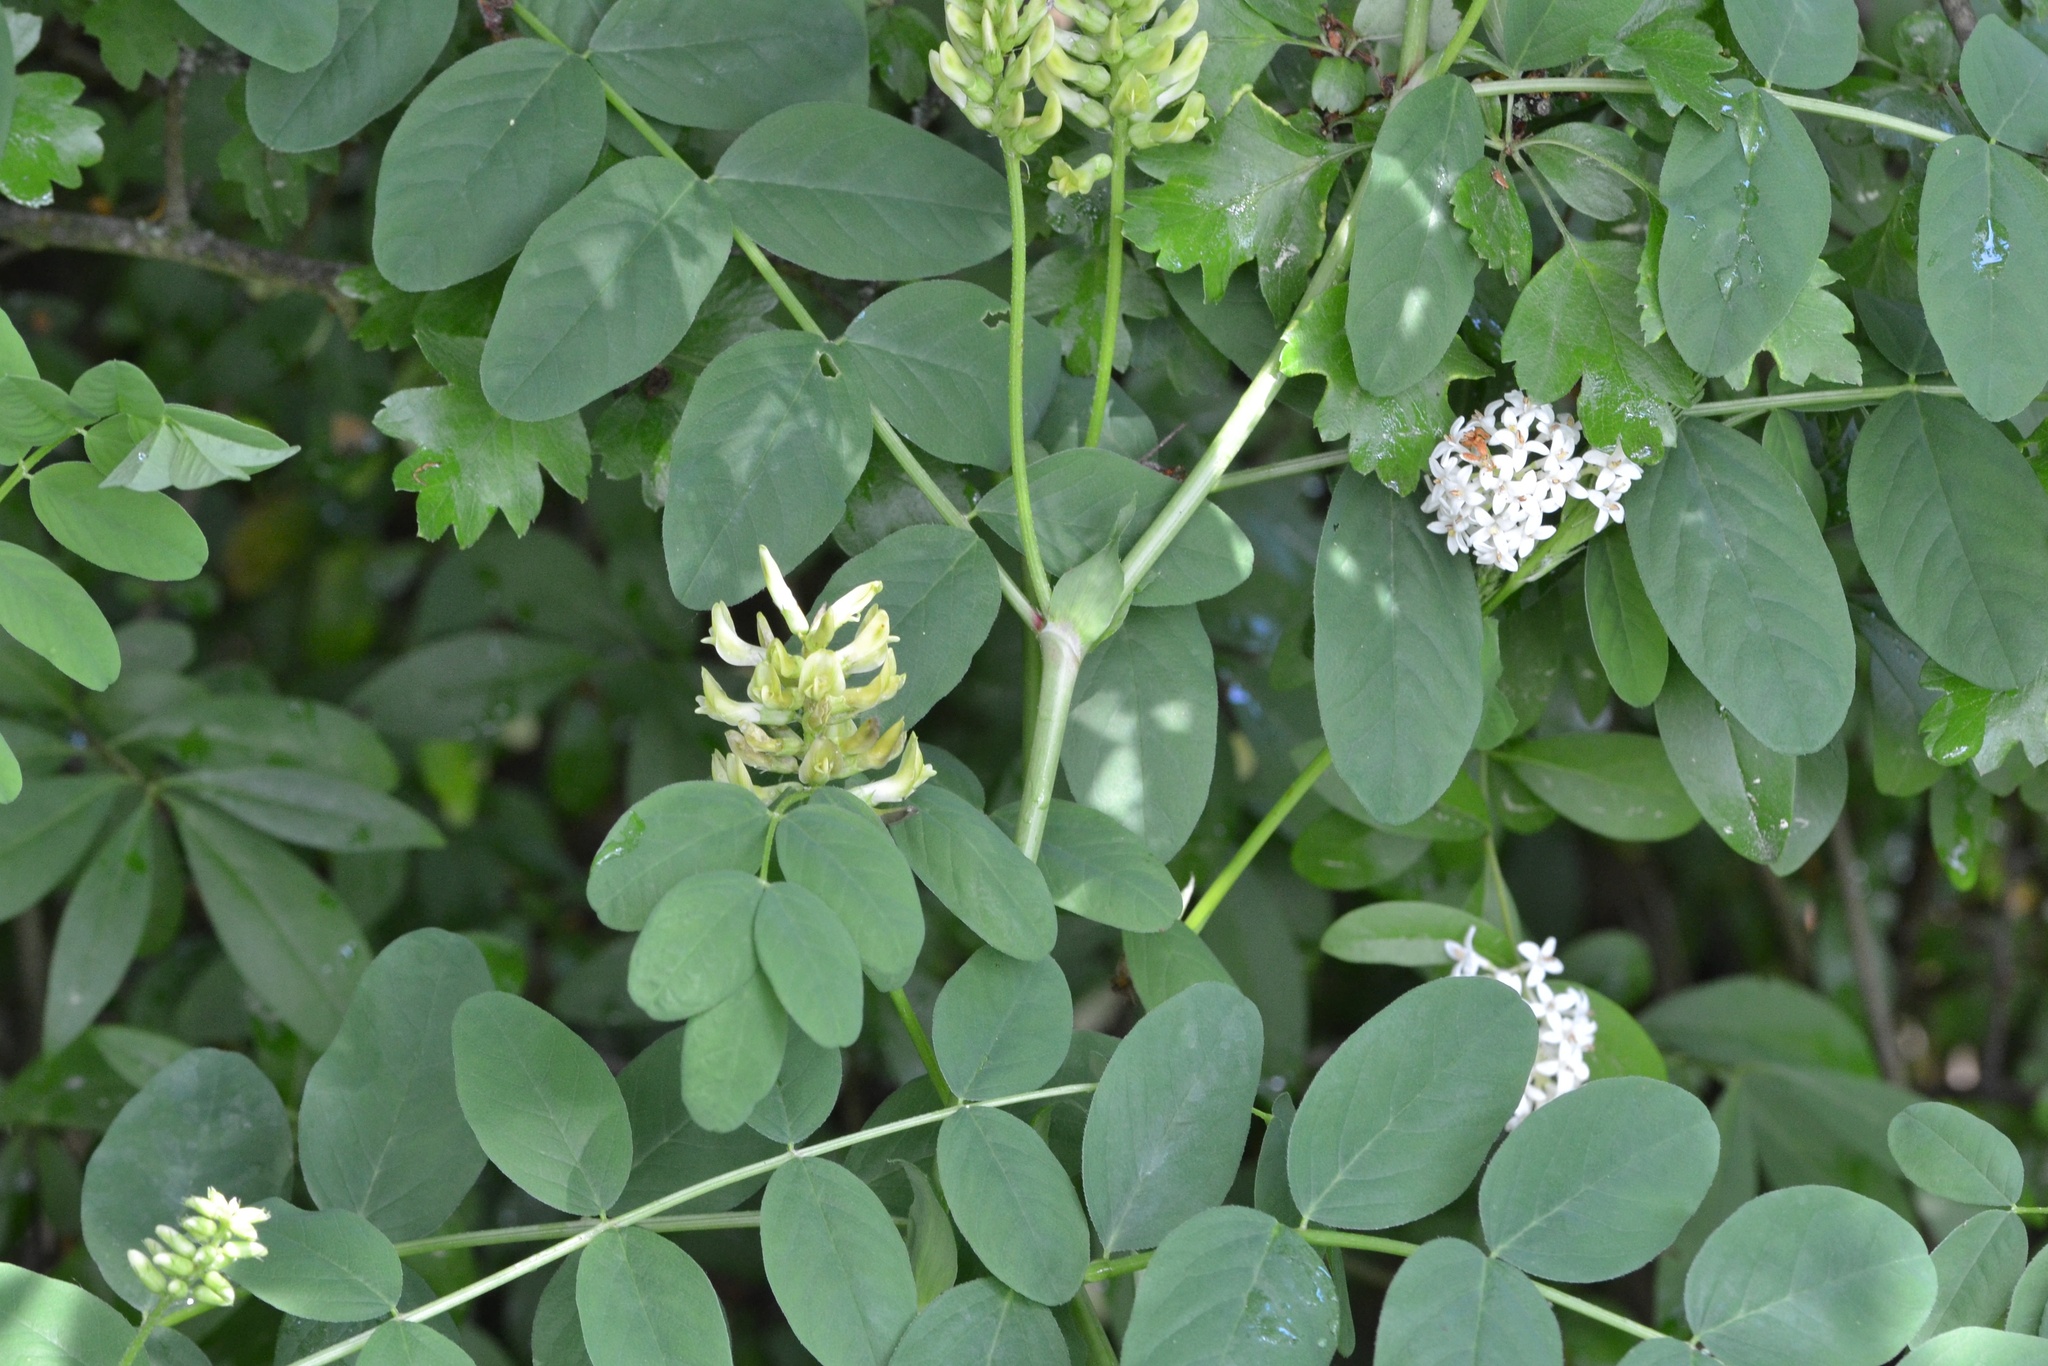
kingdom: Plantae
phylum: Tracheophyta
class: Magnoliopsida
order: Fabales
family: Fabaceae
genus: Astragalus
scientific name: Astragalus glycyphyllos
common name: Wild liquorice
